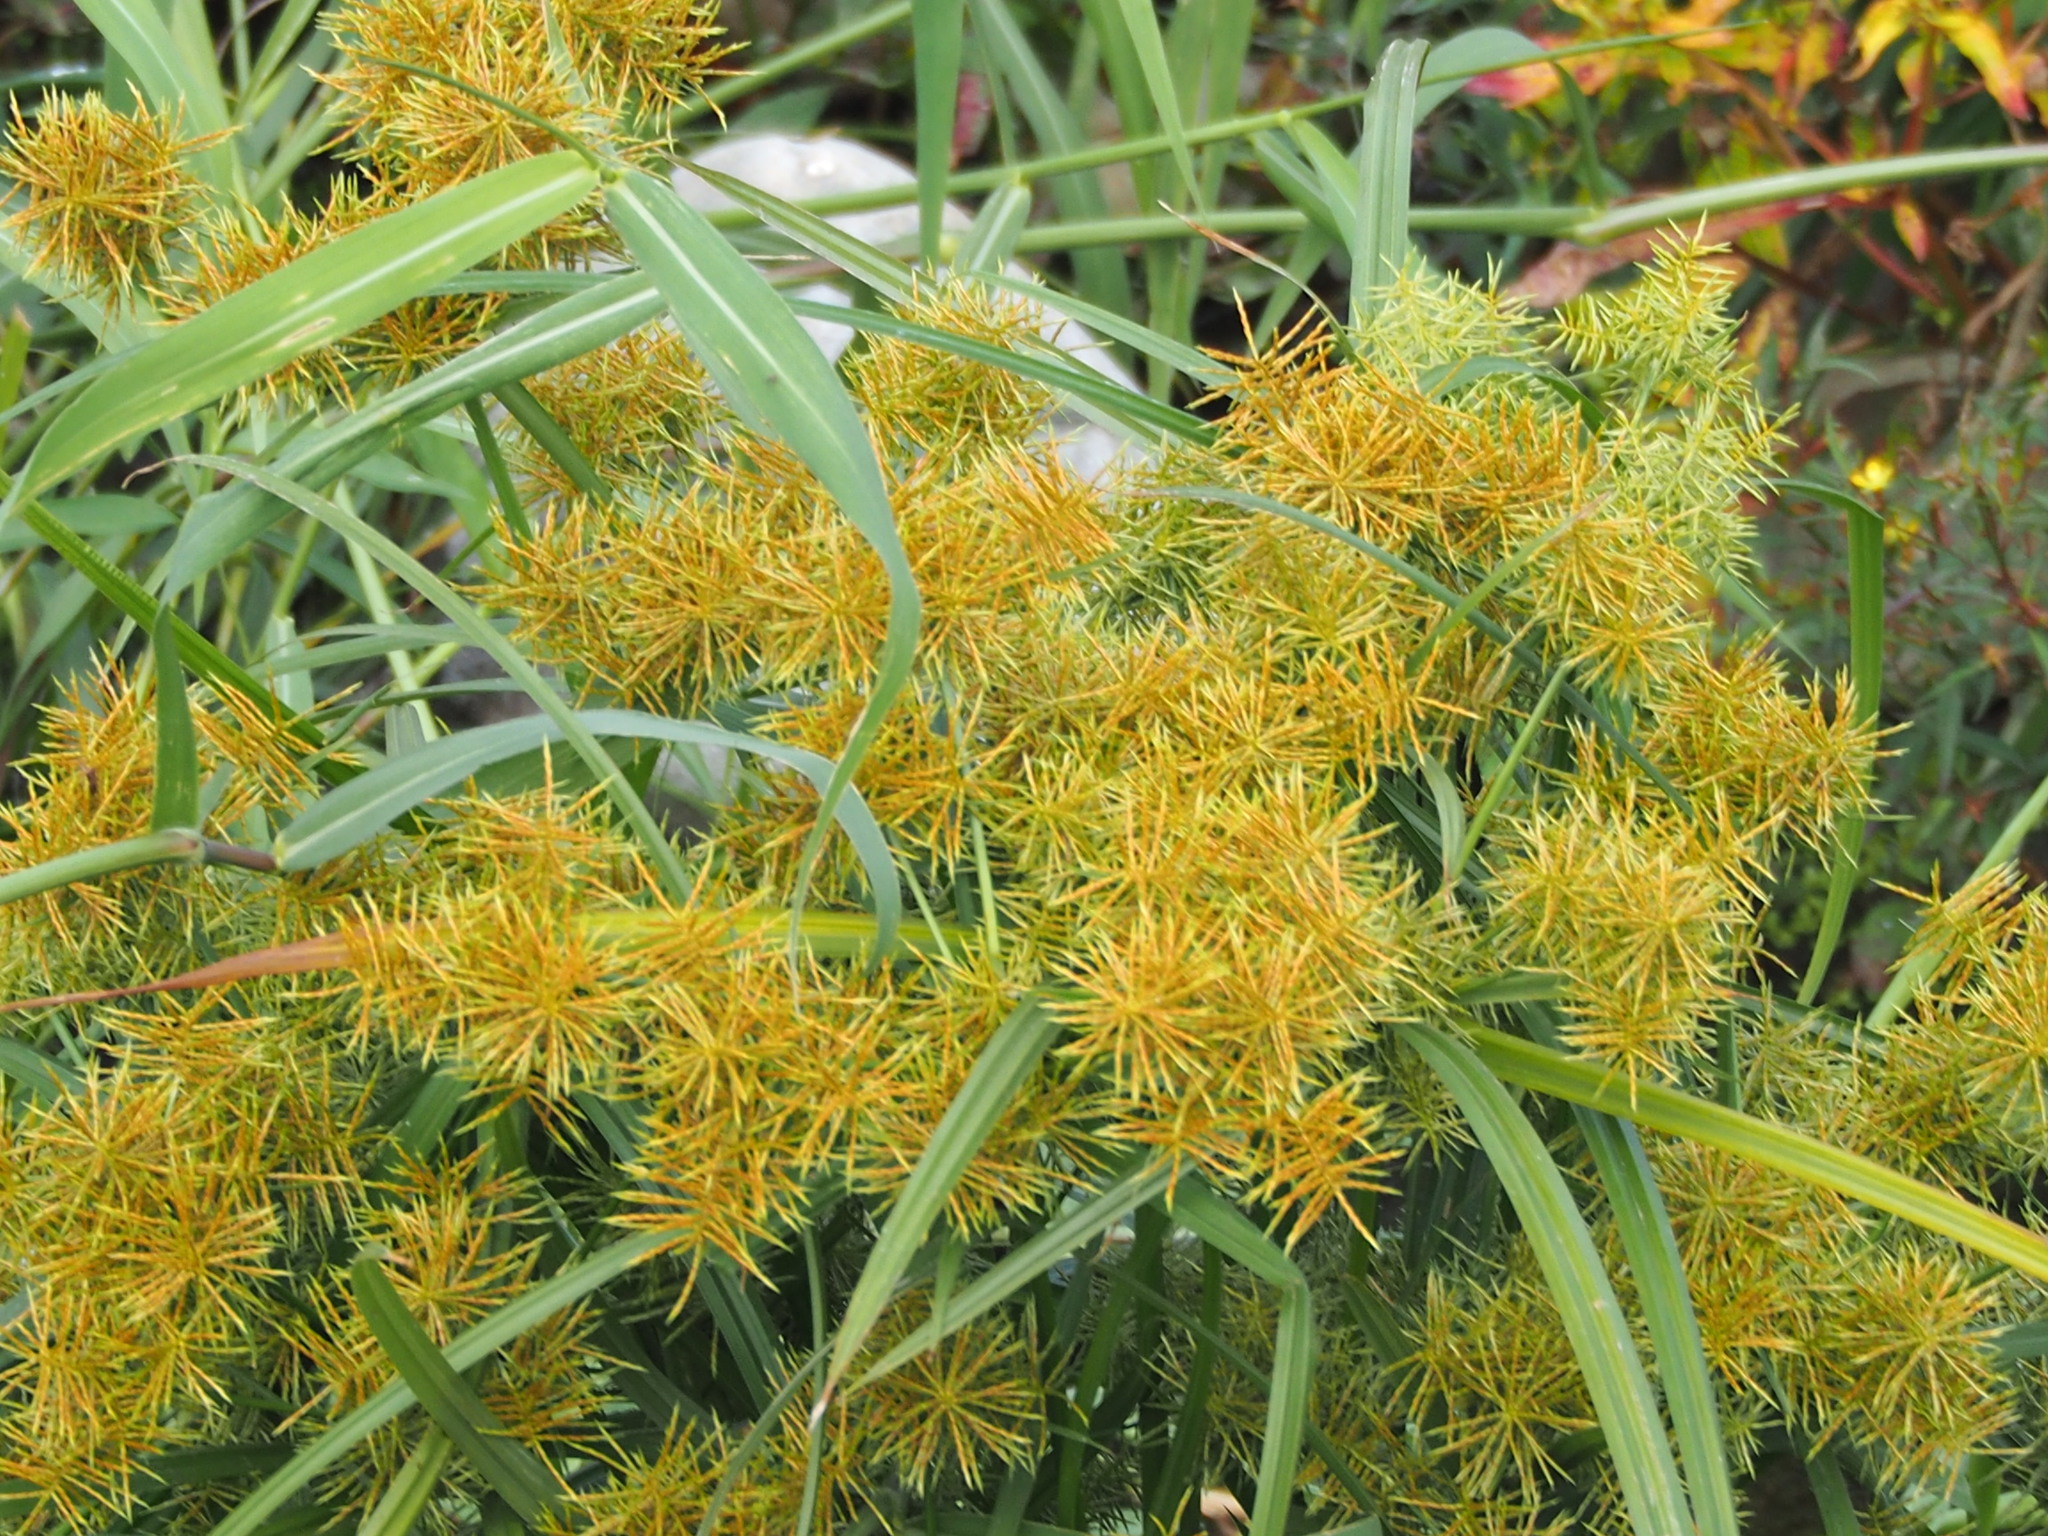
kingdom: Plantae
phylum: Tracheophyta
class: Liliopsida
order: Poales
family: Cyperaceae
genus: Cyperus
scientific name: Cyperus odoratus
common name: Fragrant flatsedge
